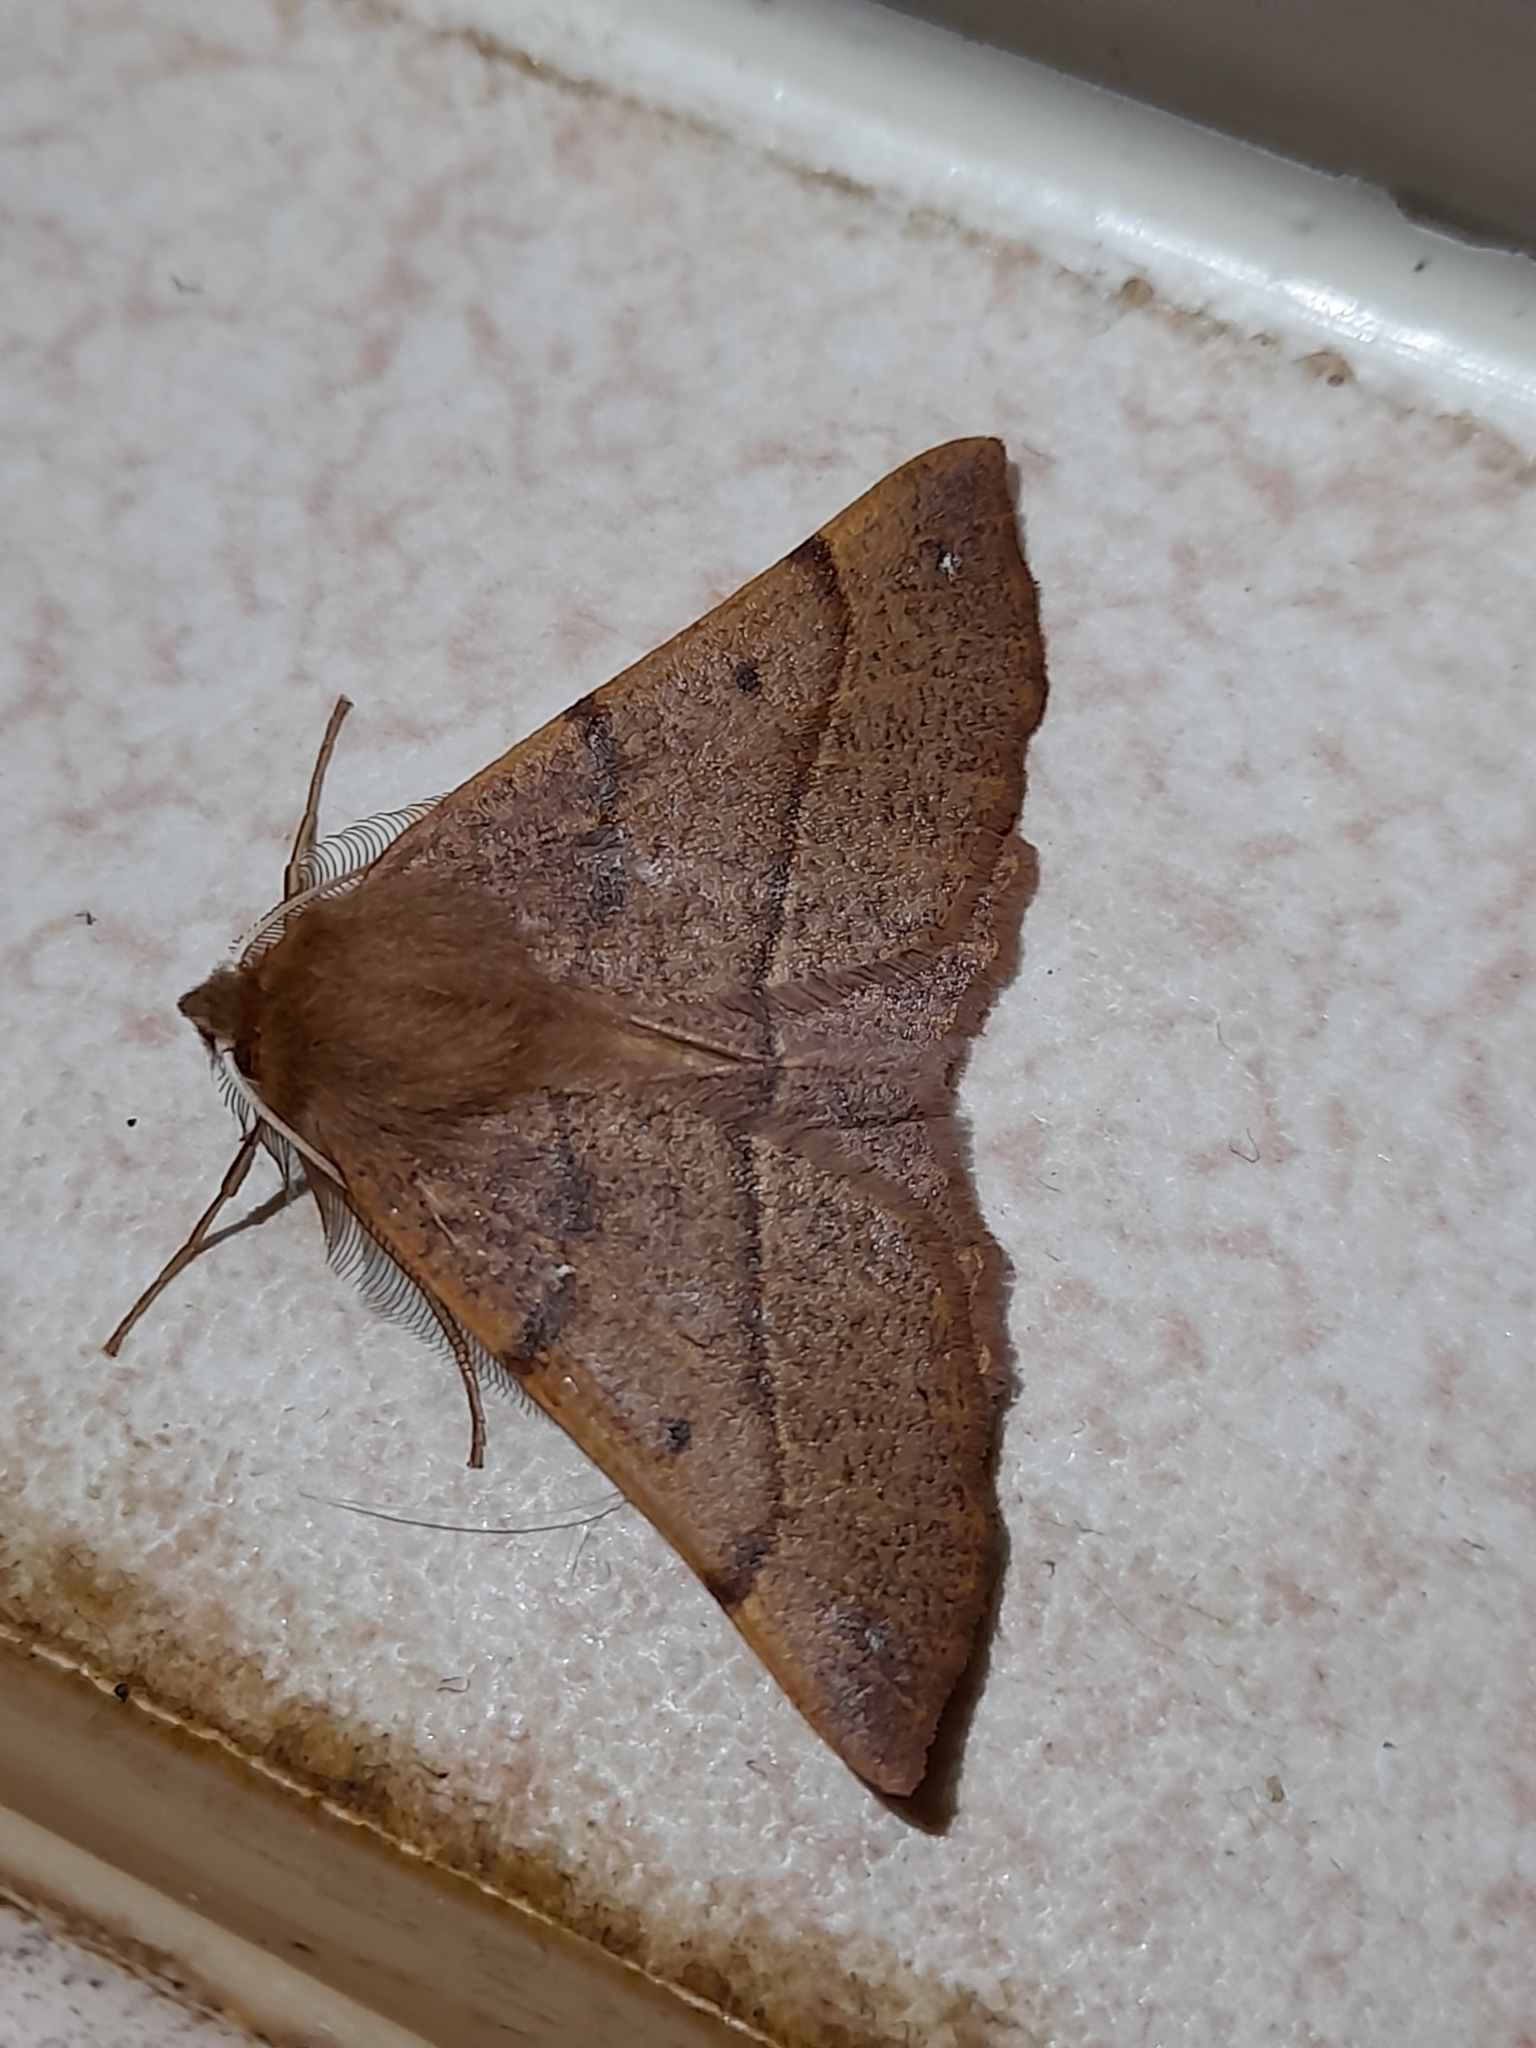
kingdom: Animalia
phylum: Arthropoda
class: Insecta
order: Lepidoptera
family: Geometridae
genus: Colotois
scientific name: Colotois pennaria
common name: Feathered thorn
